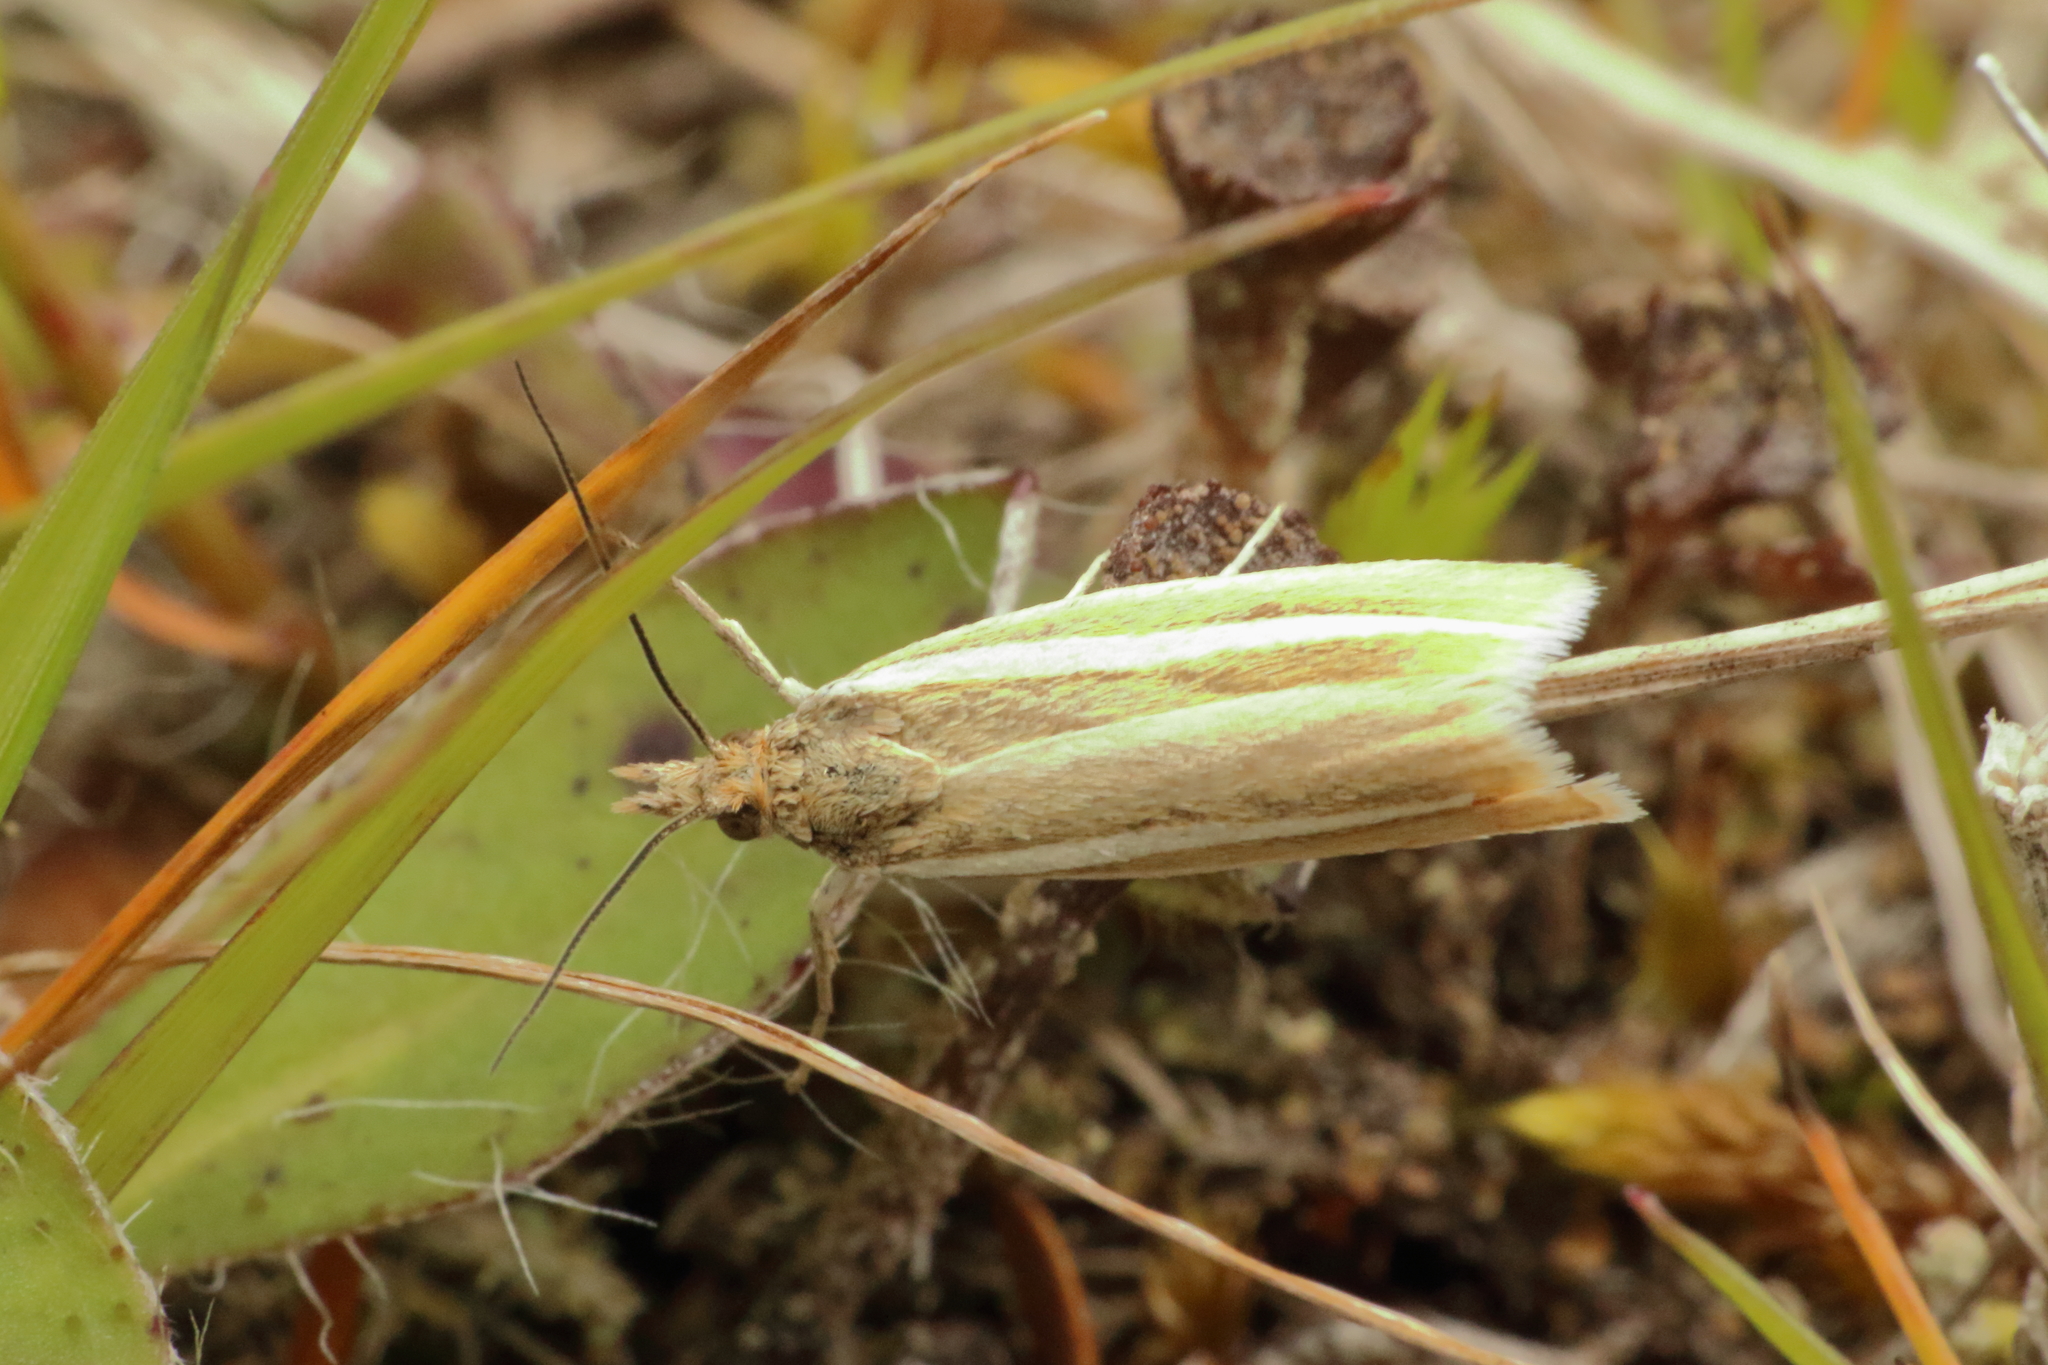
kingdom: Animalia
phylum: Arthropoda
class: Insecta
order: Lepidoptera
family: Crambidae
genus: Orocrambus
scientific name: Orocrambus aethonellus
